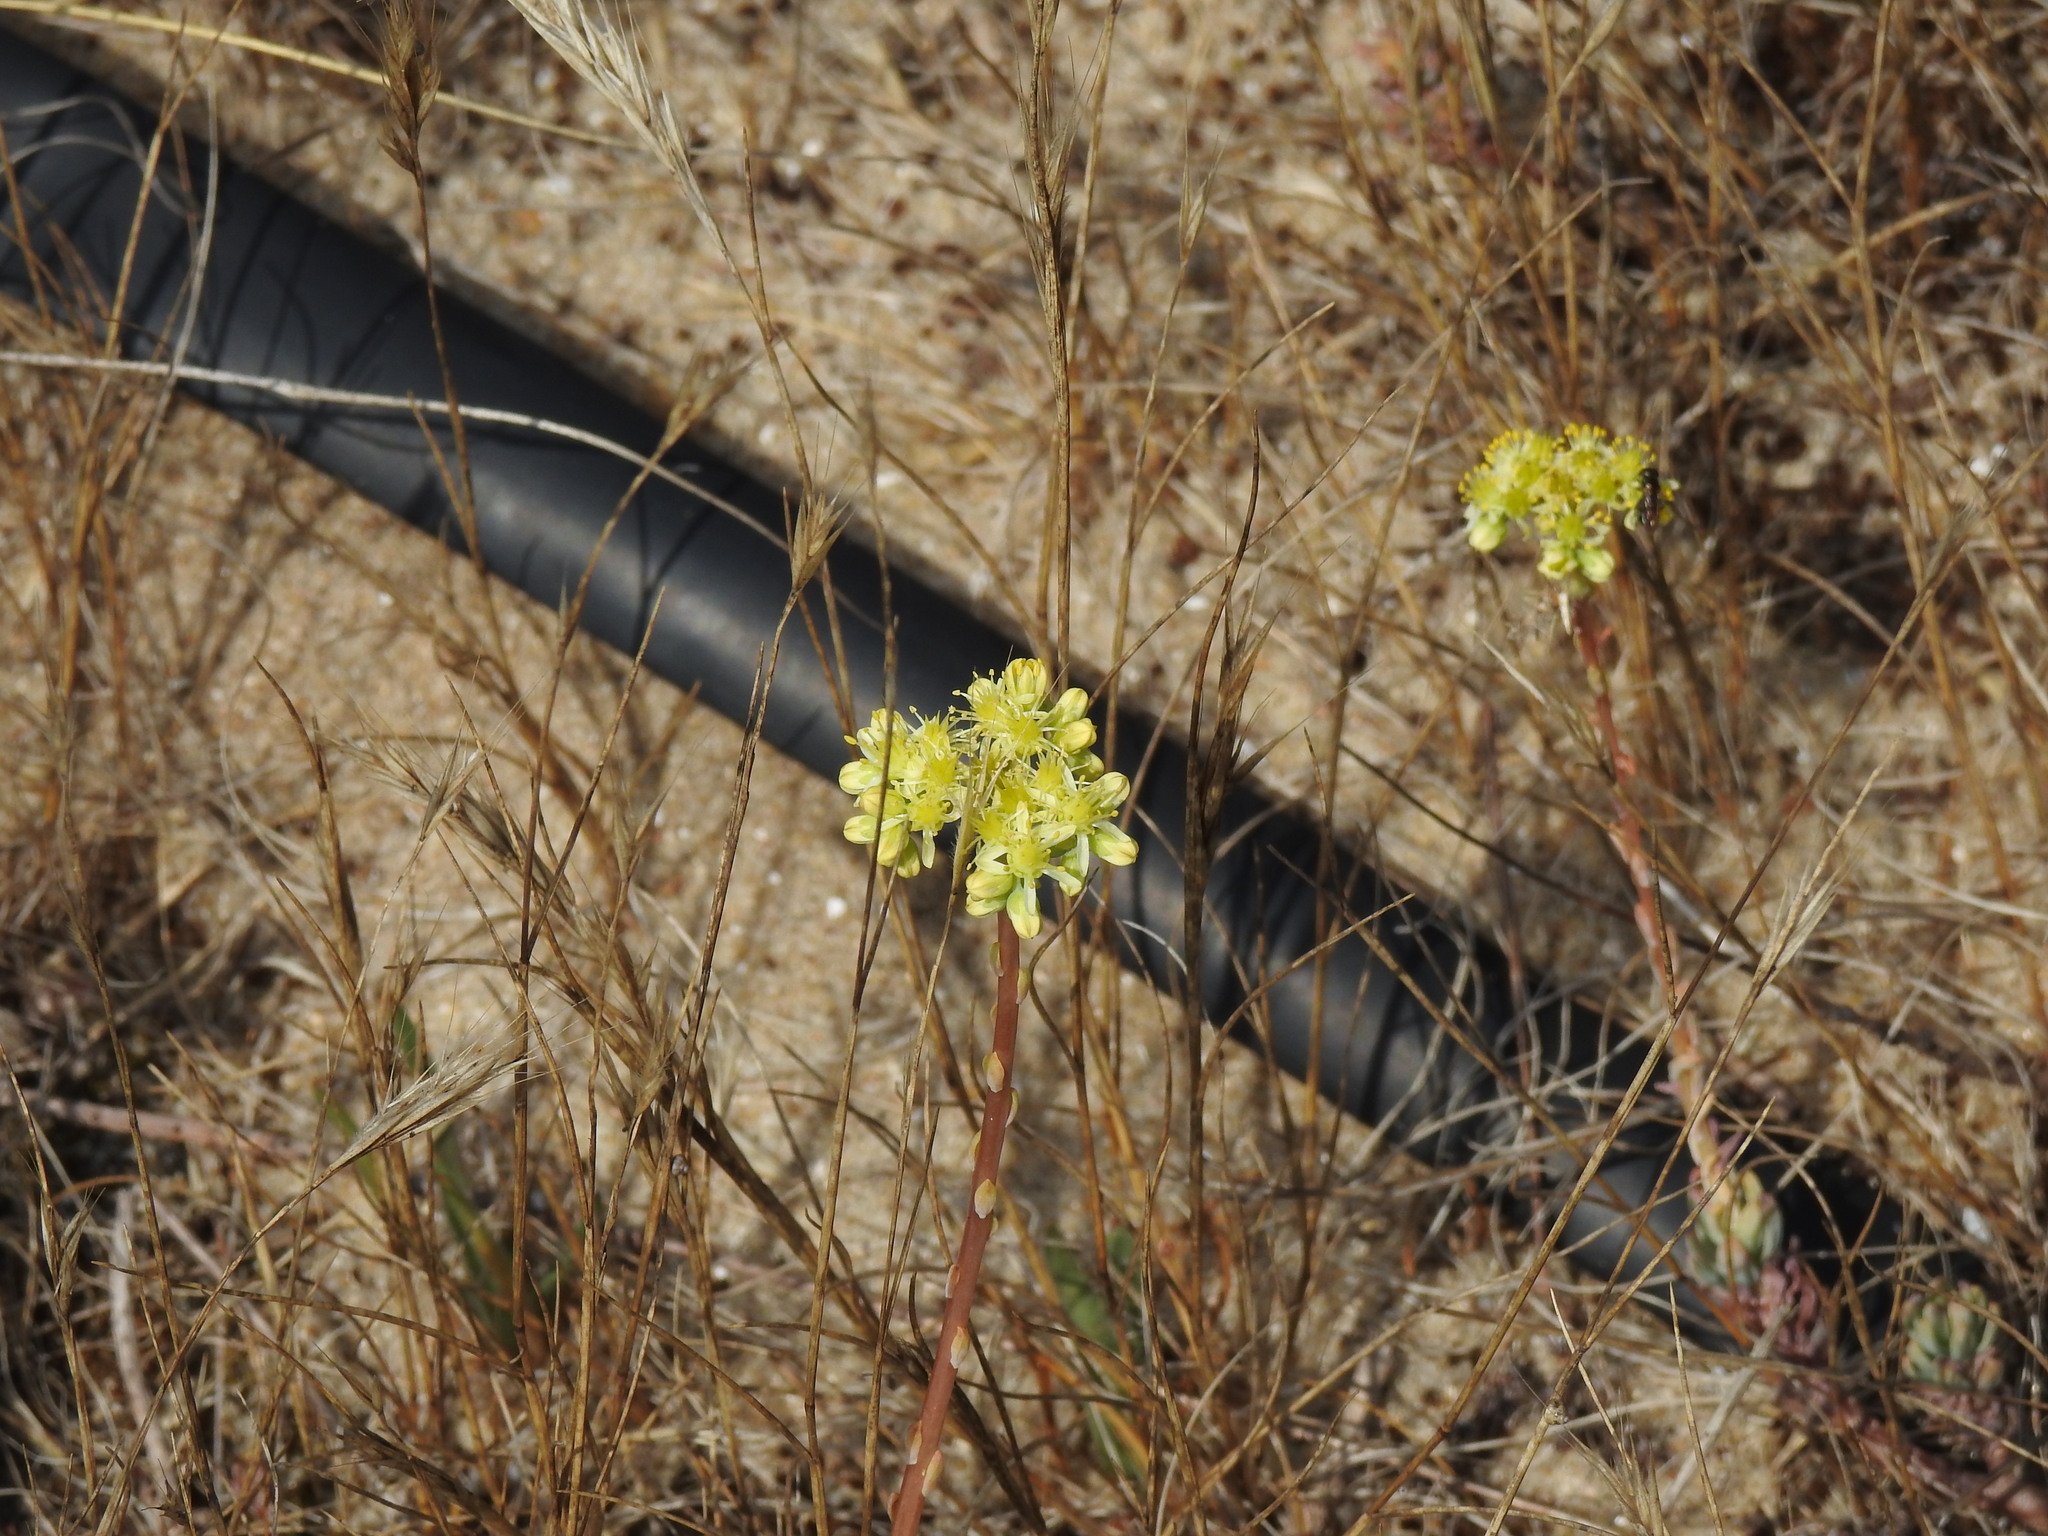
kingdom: Plantae
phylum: Tracheophyta
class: Magnoliopsida
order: Saxifragales
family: Crassulaceae
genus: Petrosedum
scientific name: Petrosedum sediforme
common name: Pale stonecrop
